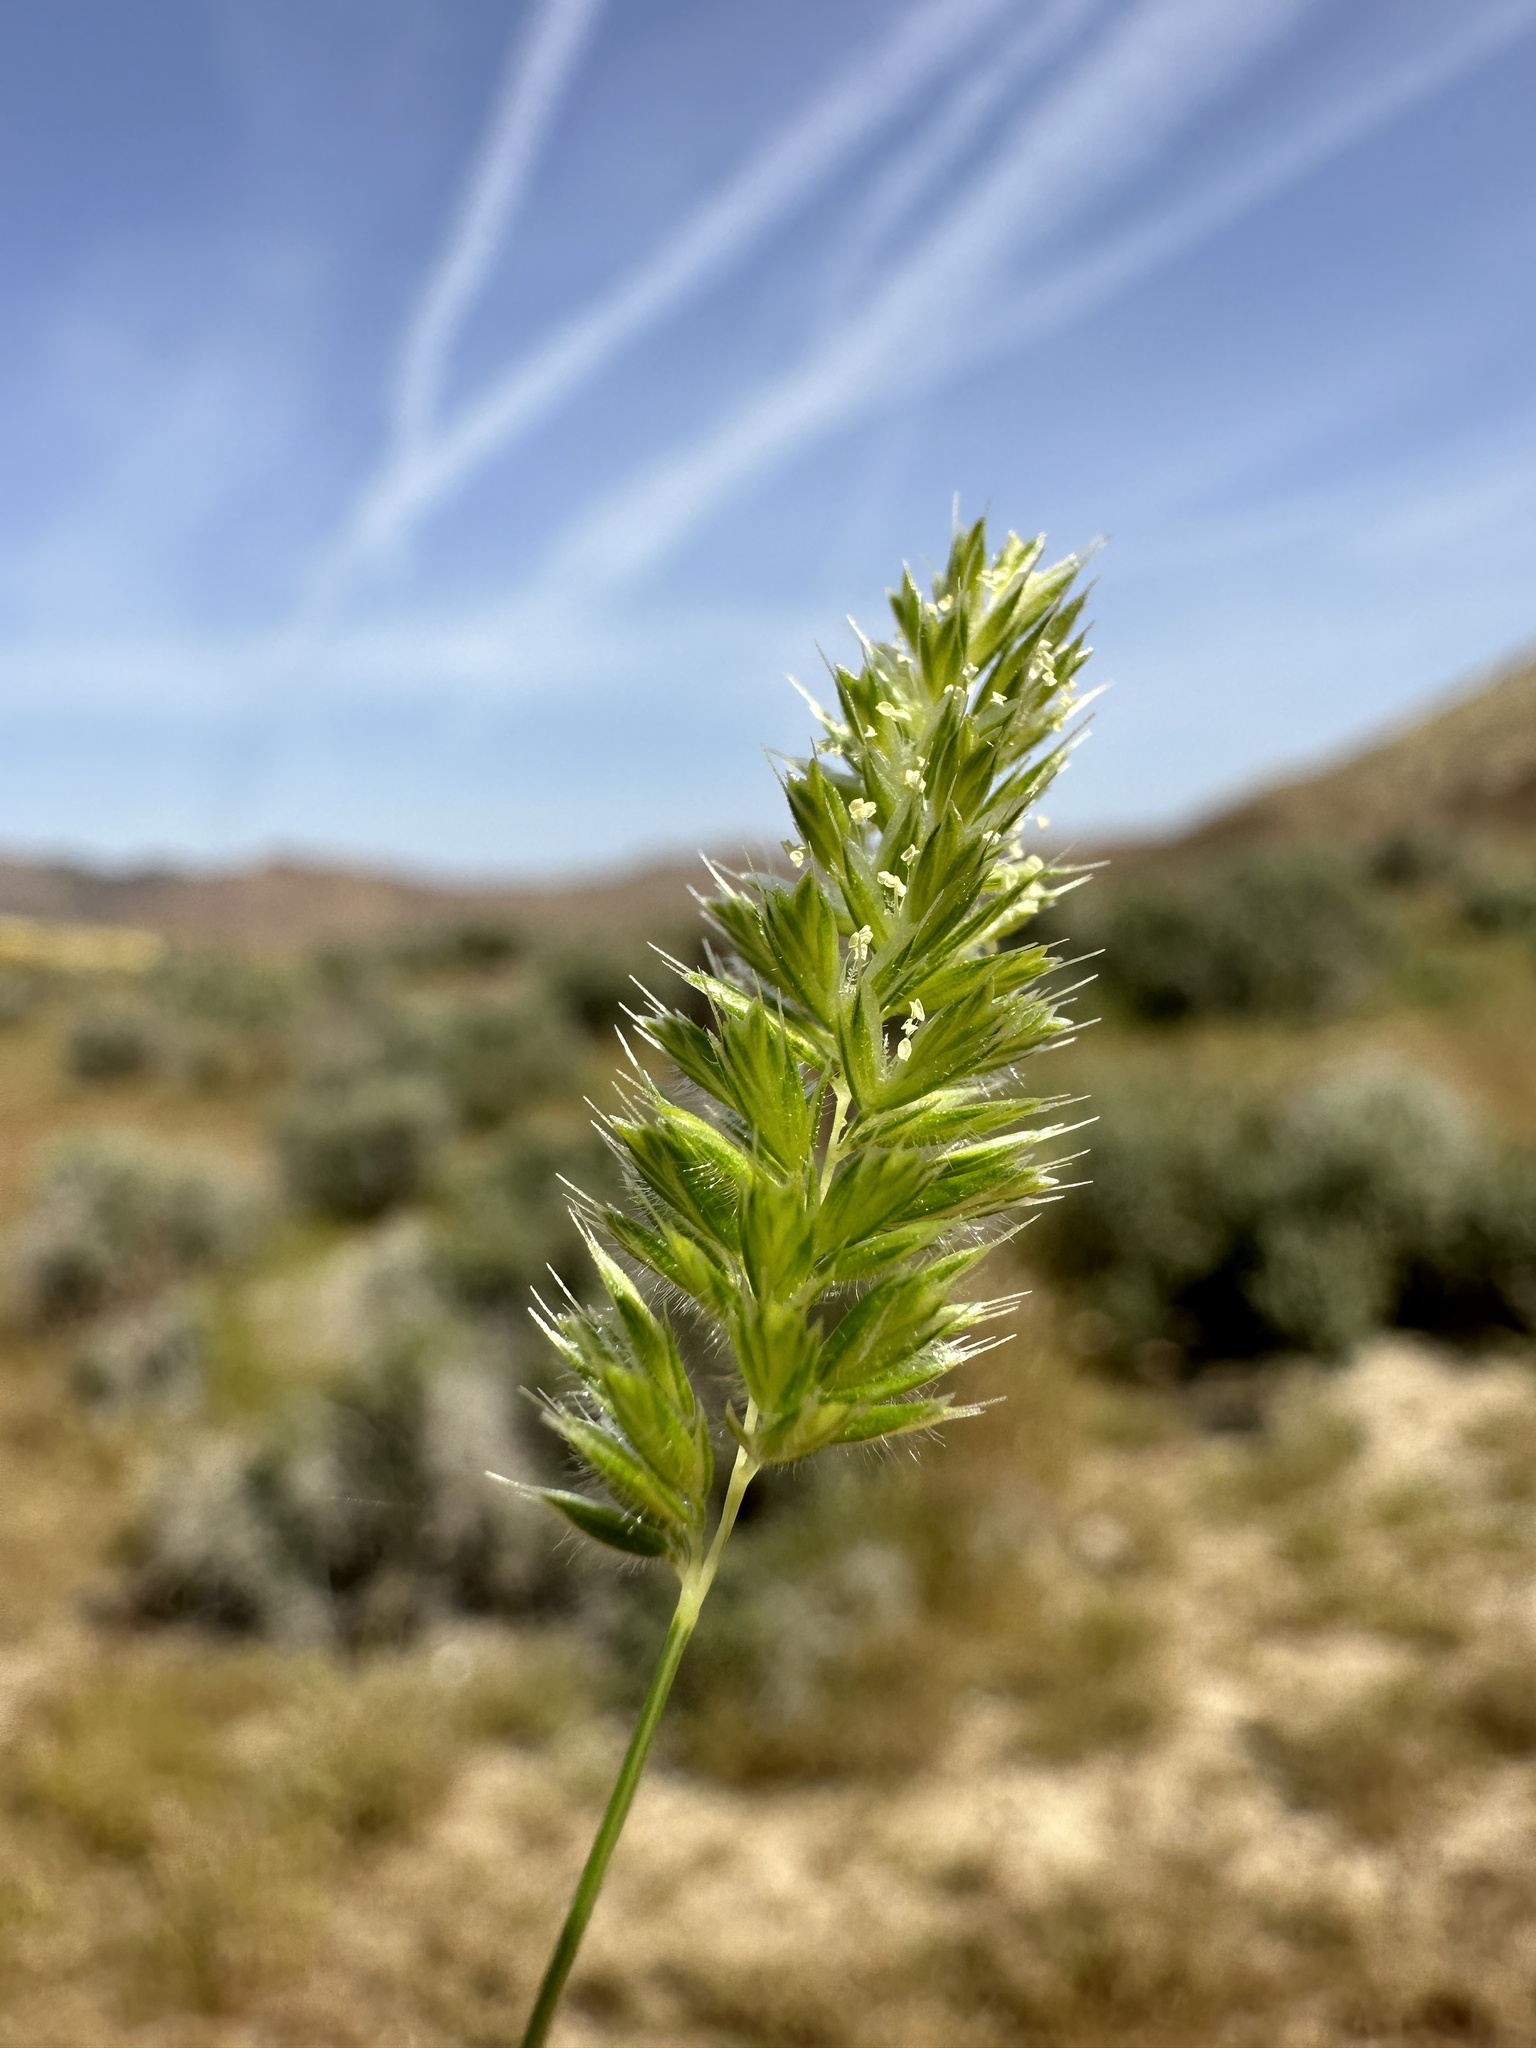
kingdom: Plantae
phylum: Tracheophyta
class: Liliopsida
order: Poales
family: Poaceae
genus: Rostraria
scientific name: Rostraria cristata
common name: Mediterranean hair-grass
